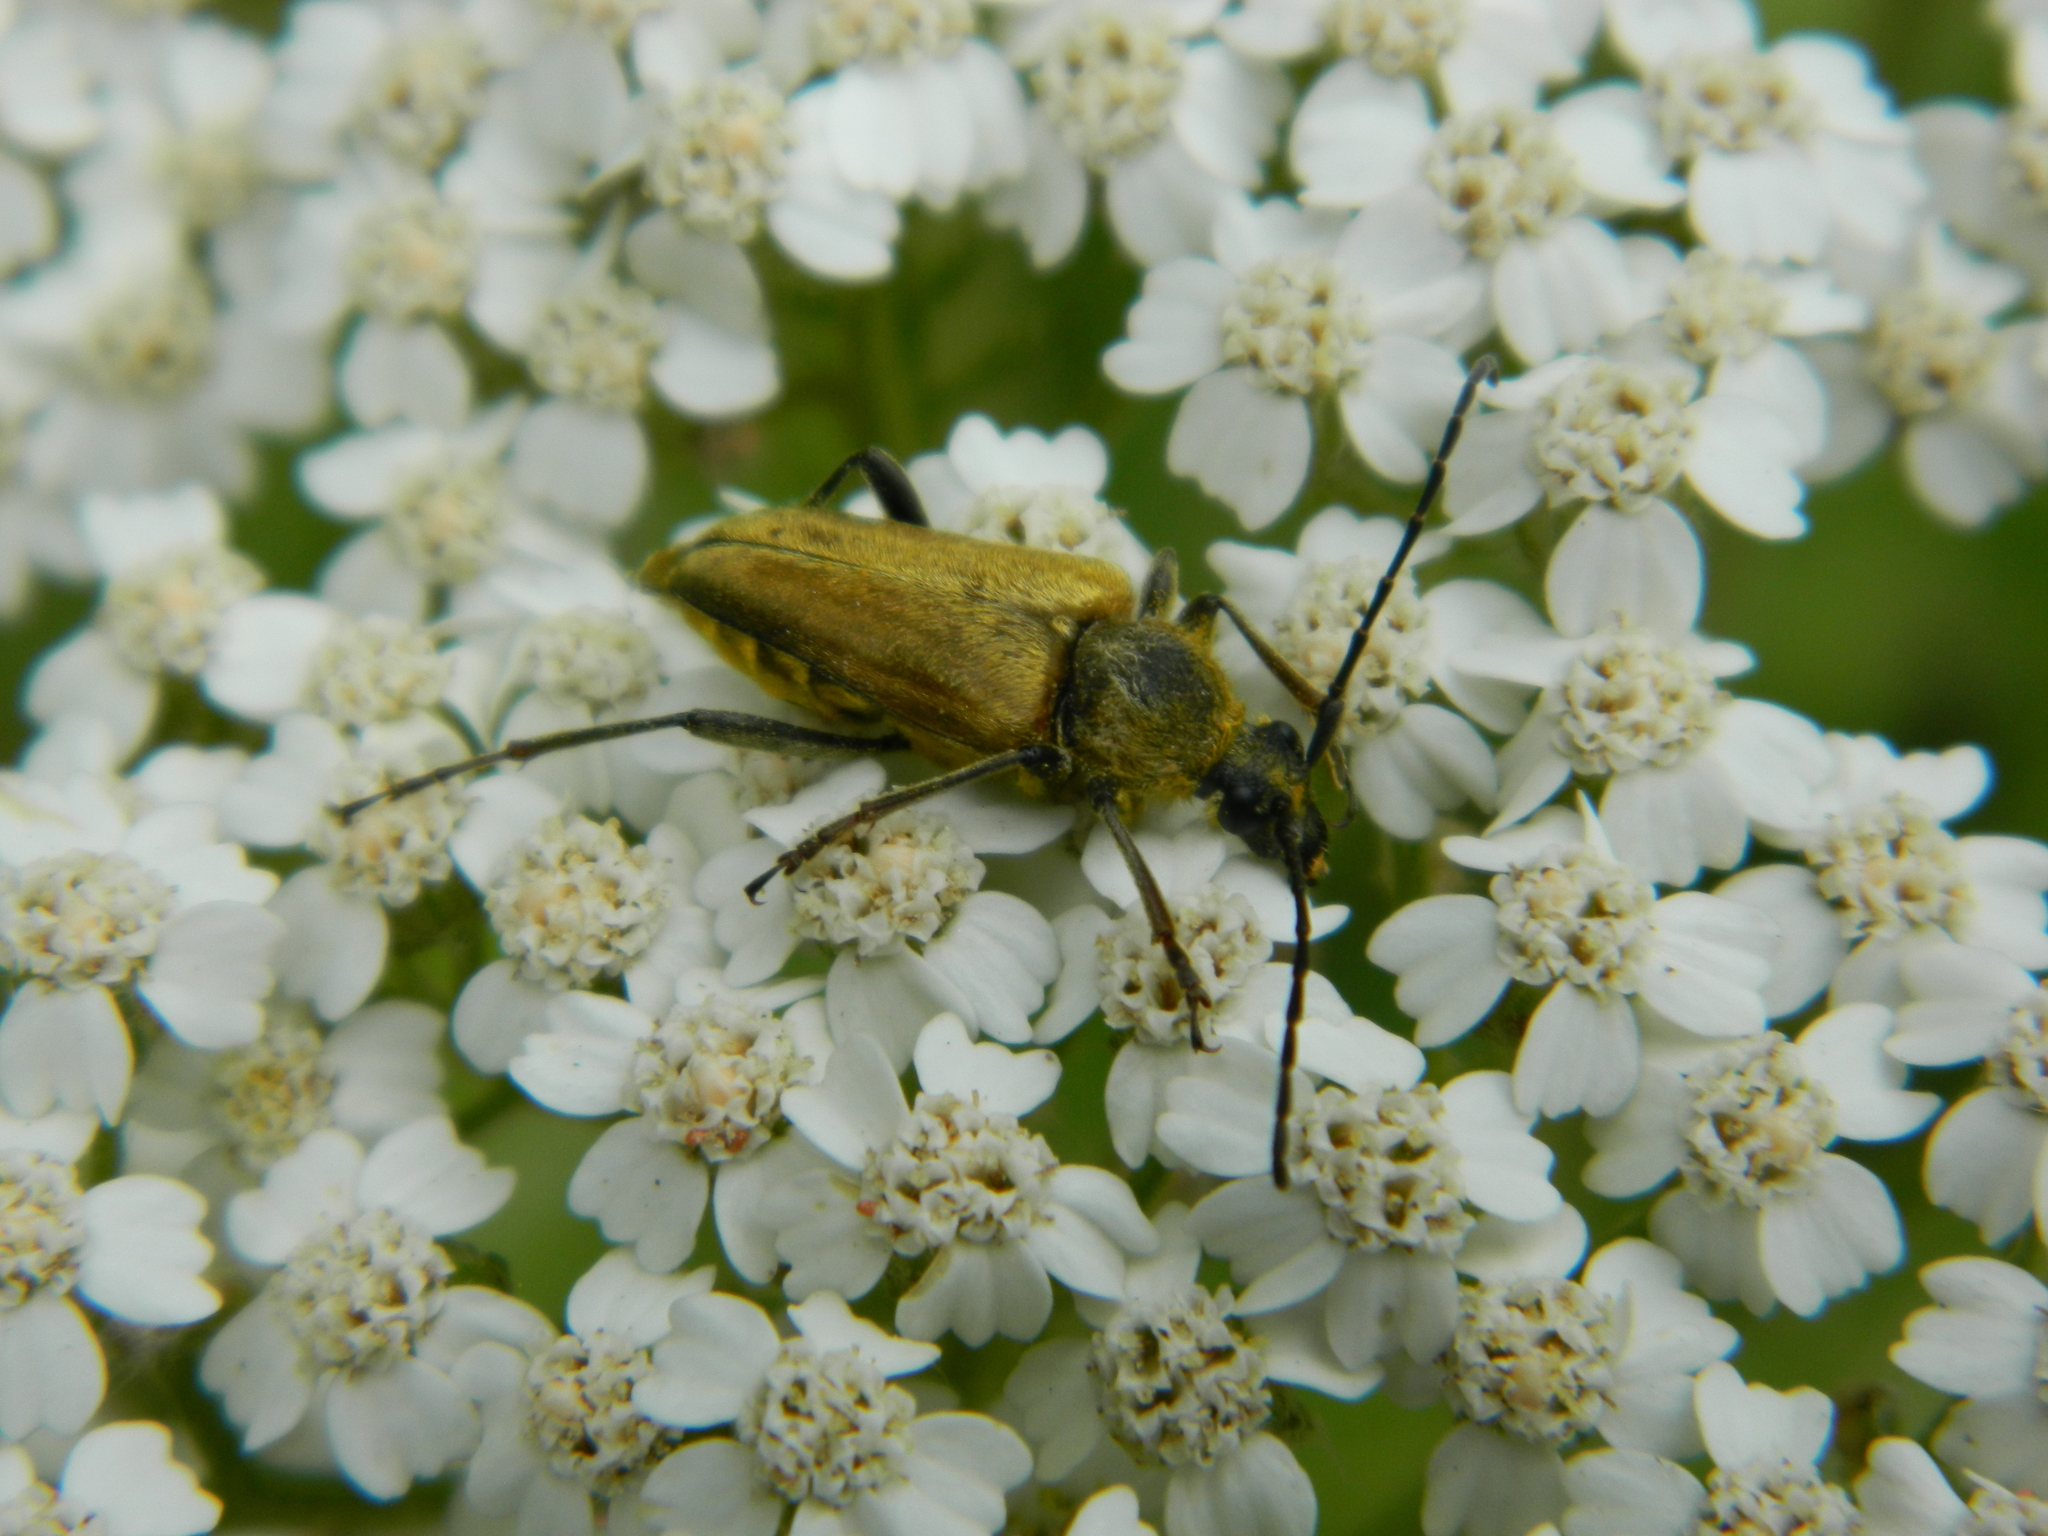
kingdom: Animalia
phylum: Arthropoda
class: Insecta
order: Coleoptera
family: Cerambycidae
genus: Cosmosalia
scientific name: Cosmosalia chrysocoma
